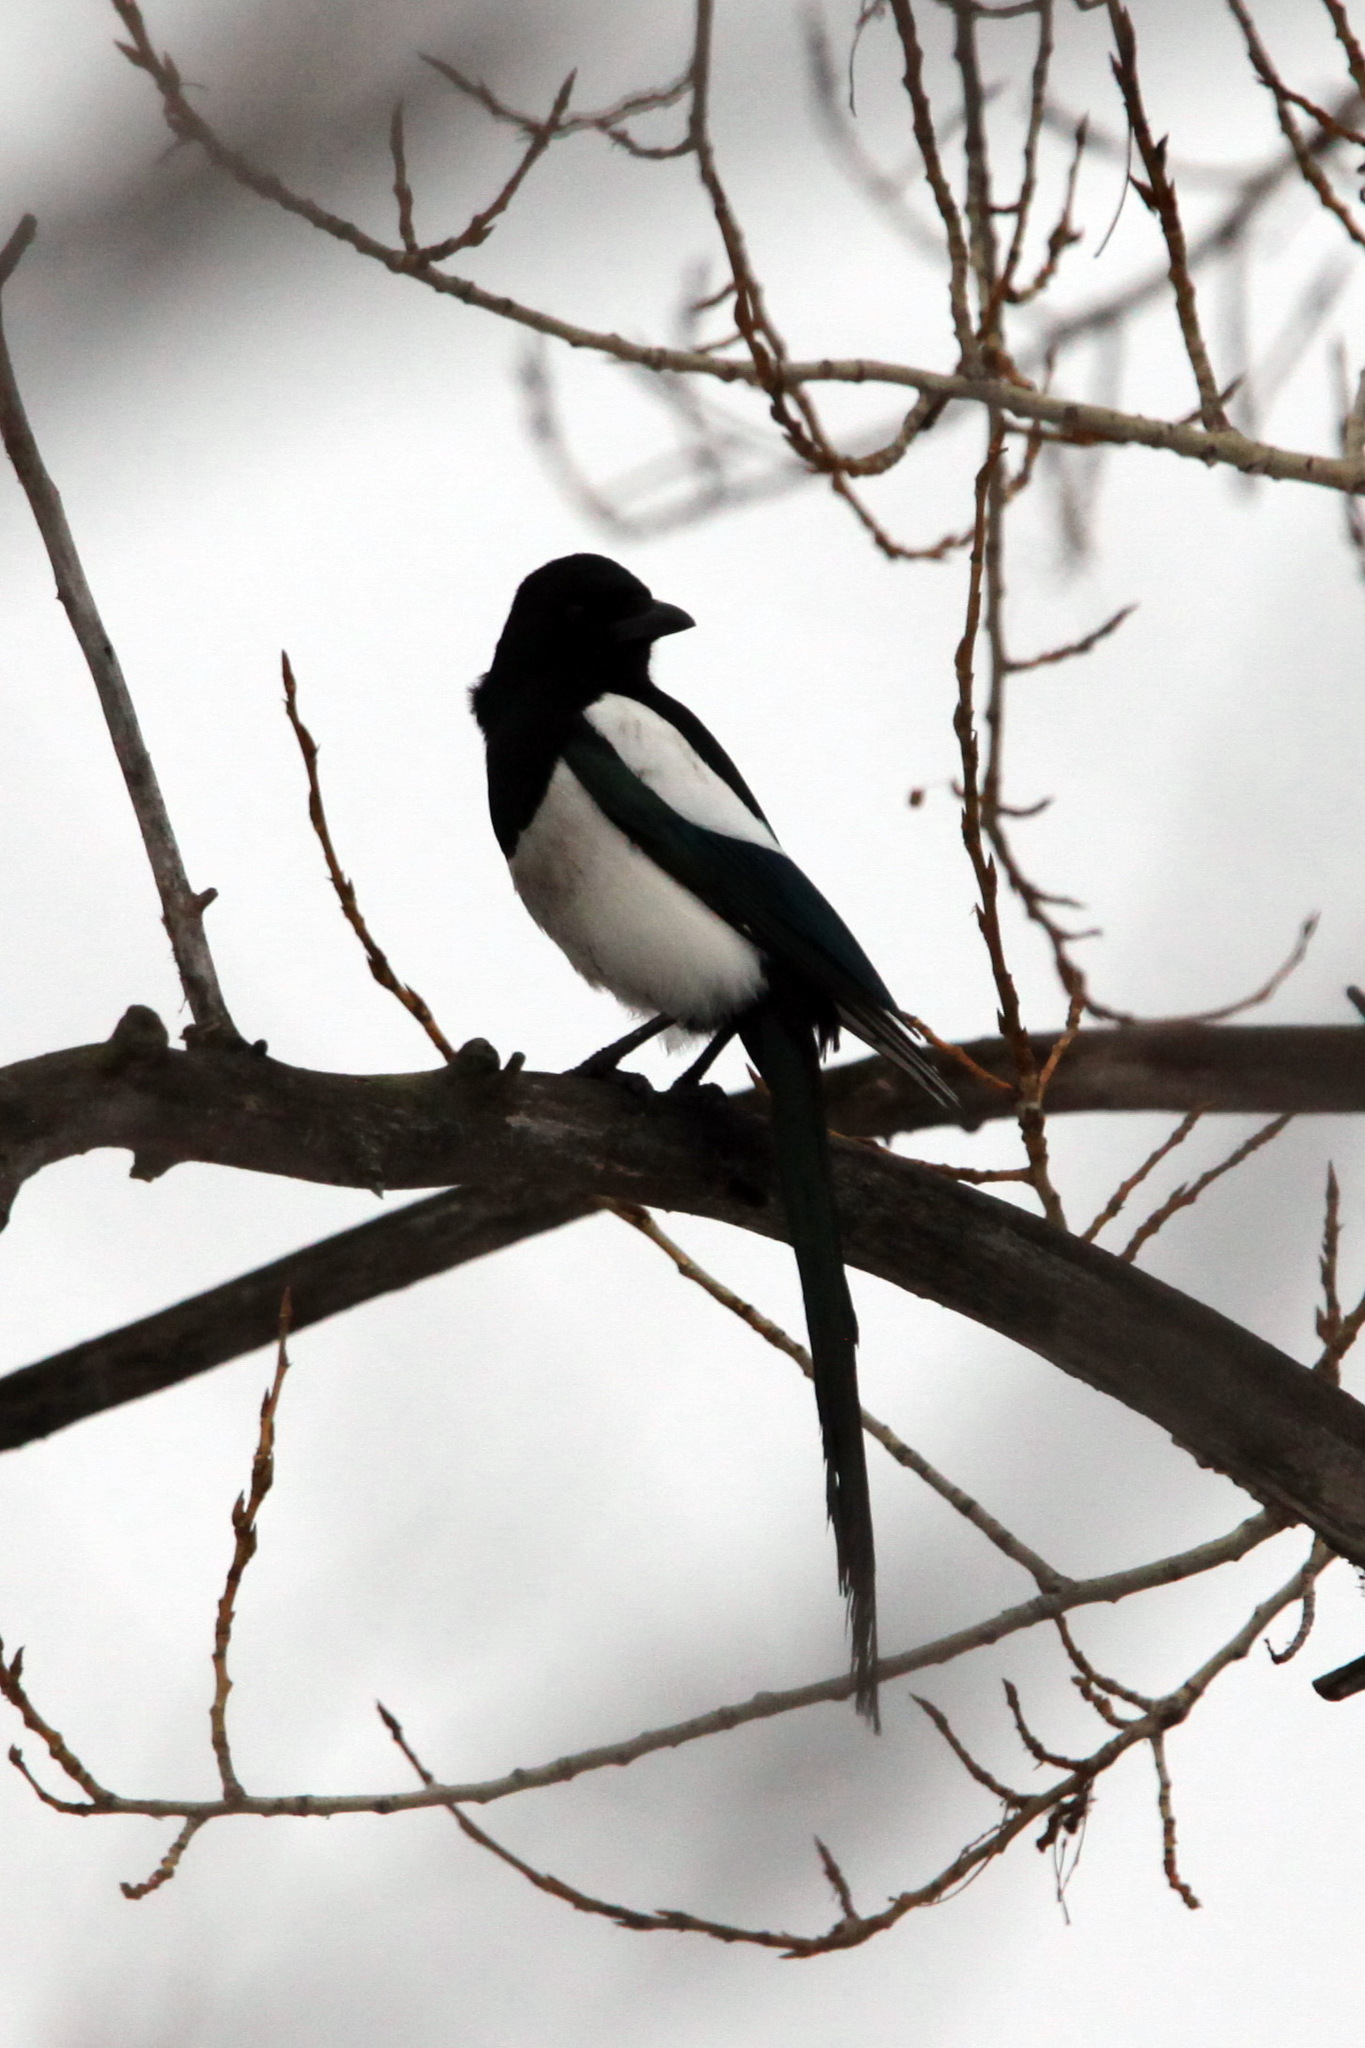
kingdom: Animalia
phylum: Chordata
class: Aves
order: Passeriformes
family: Corvidae
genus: Pica
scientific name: Pica pica
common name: Eurasian magpie
